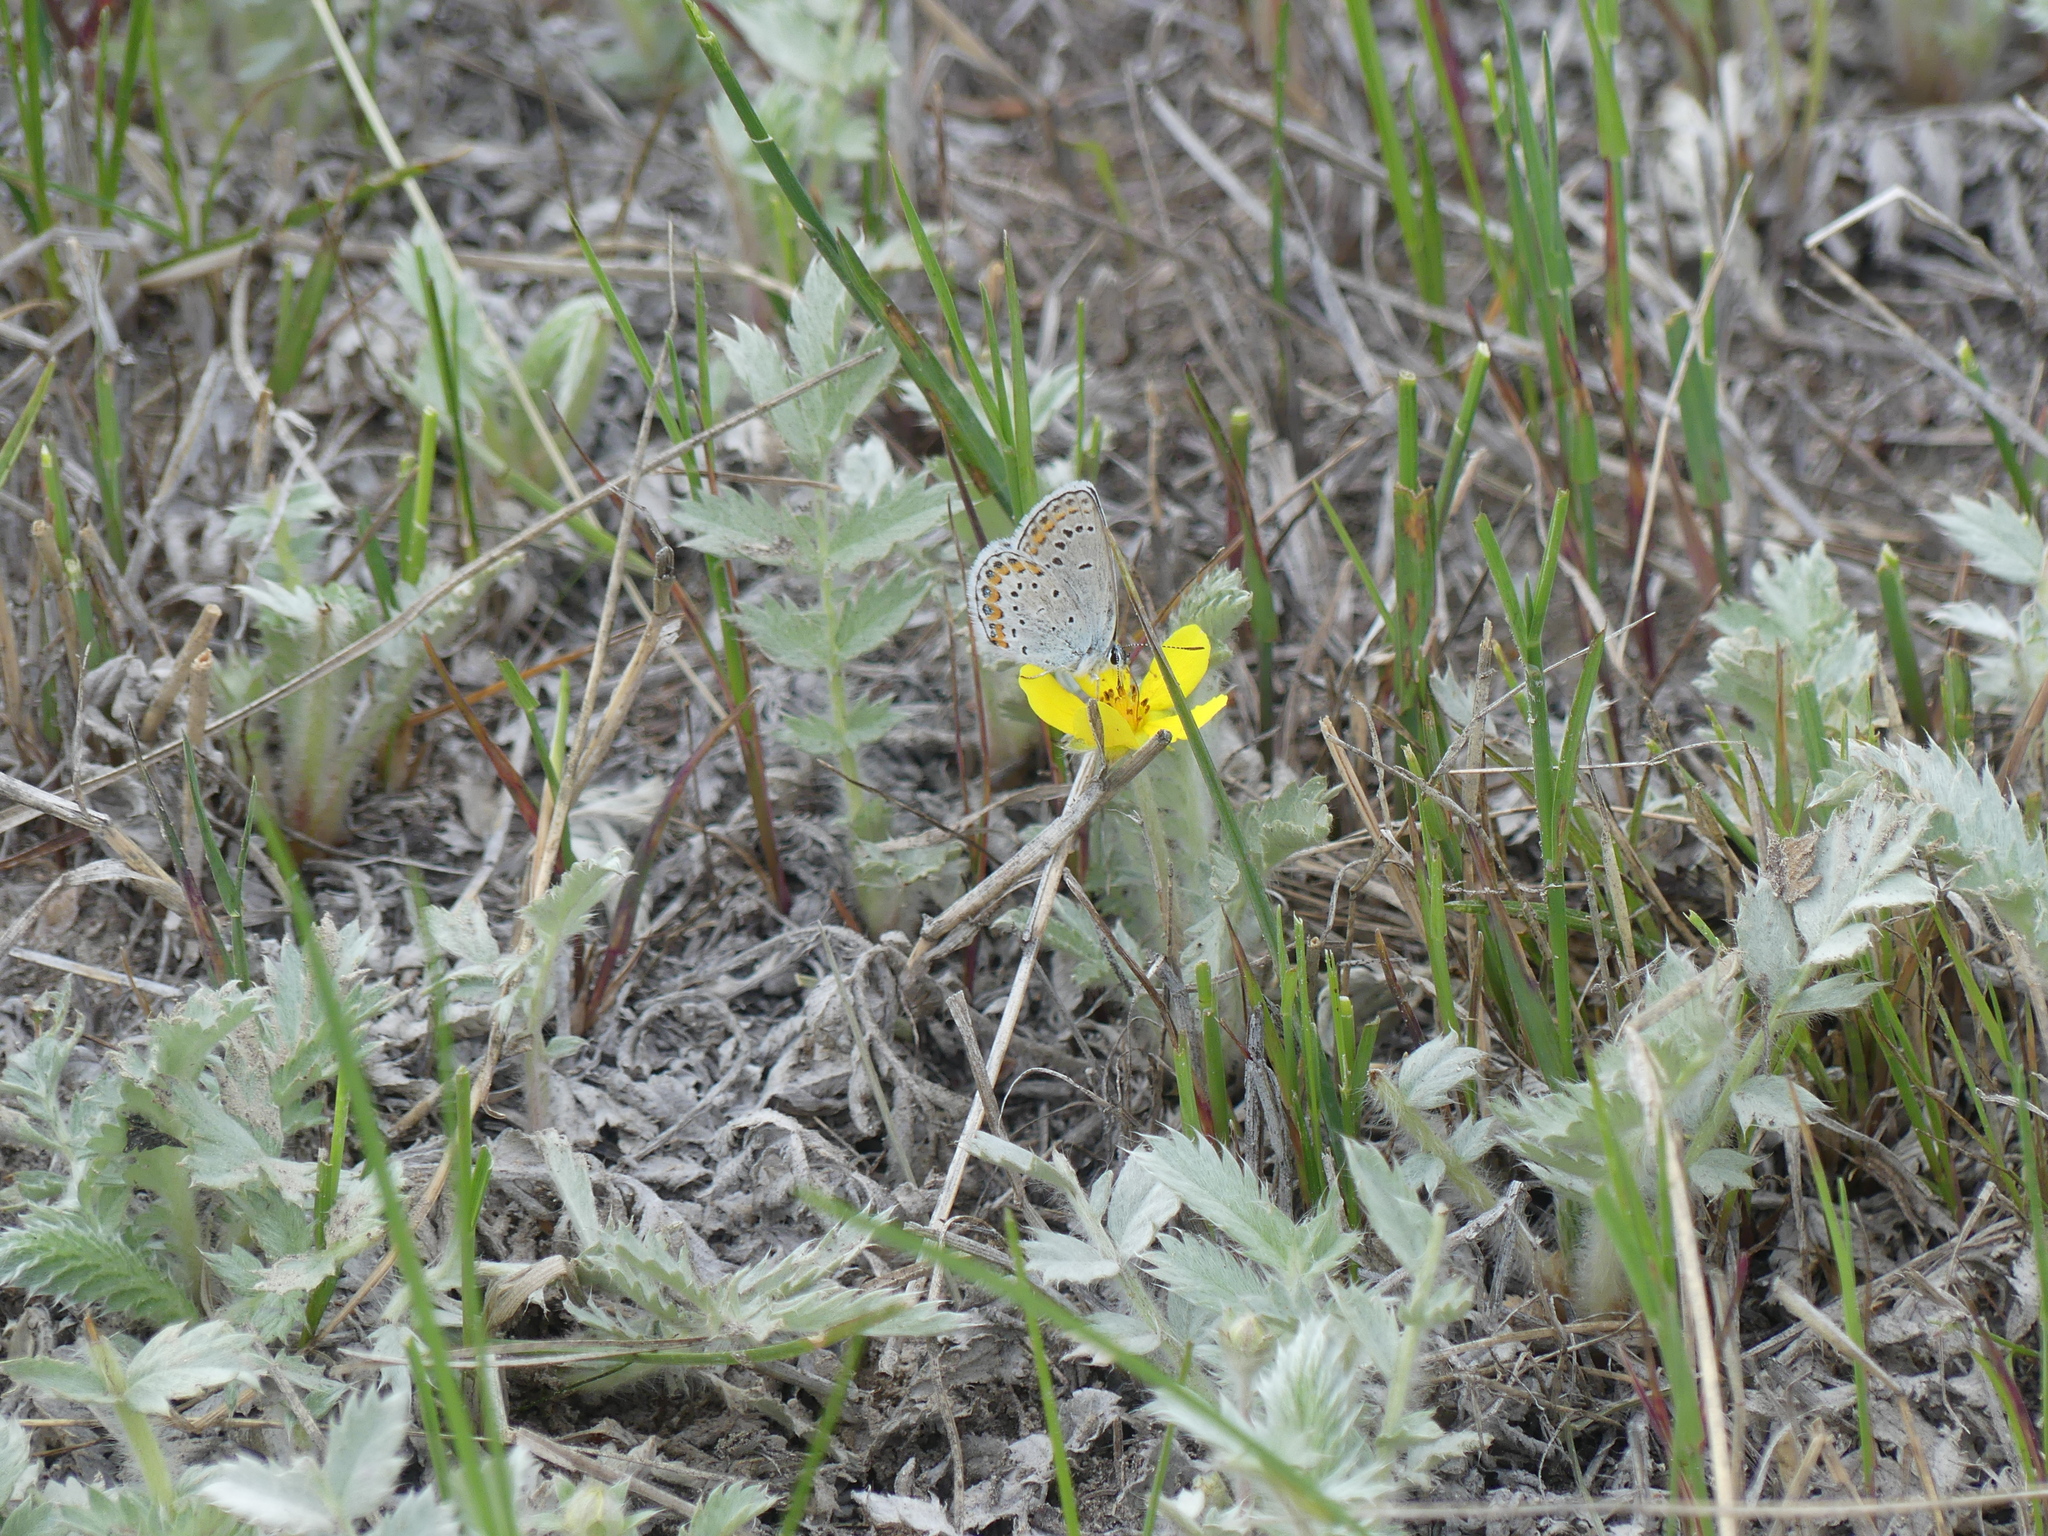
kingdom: Animalia
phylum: Arthropoda
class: Insecta
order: Lepidoptera
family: Lycaenidae
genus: Lycaeides
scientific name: Lycaeides melissa
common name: Melissa blue
